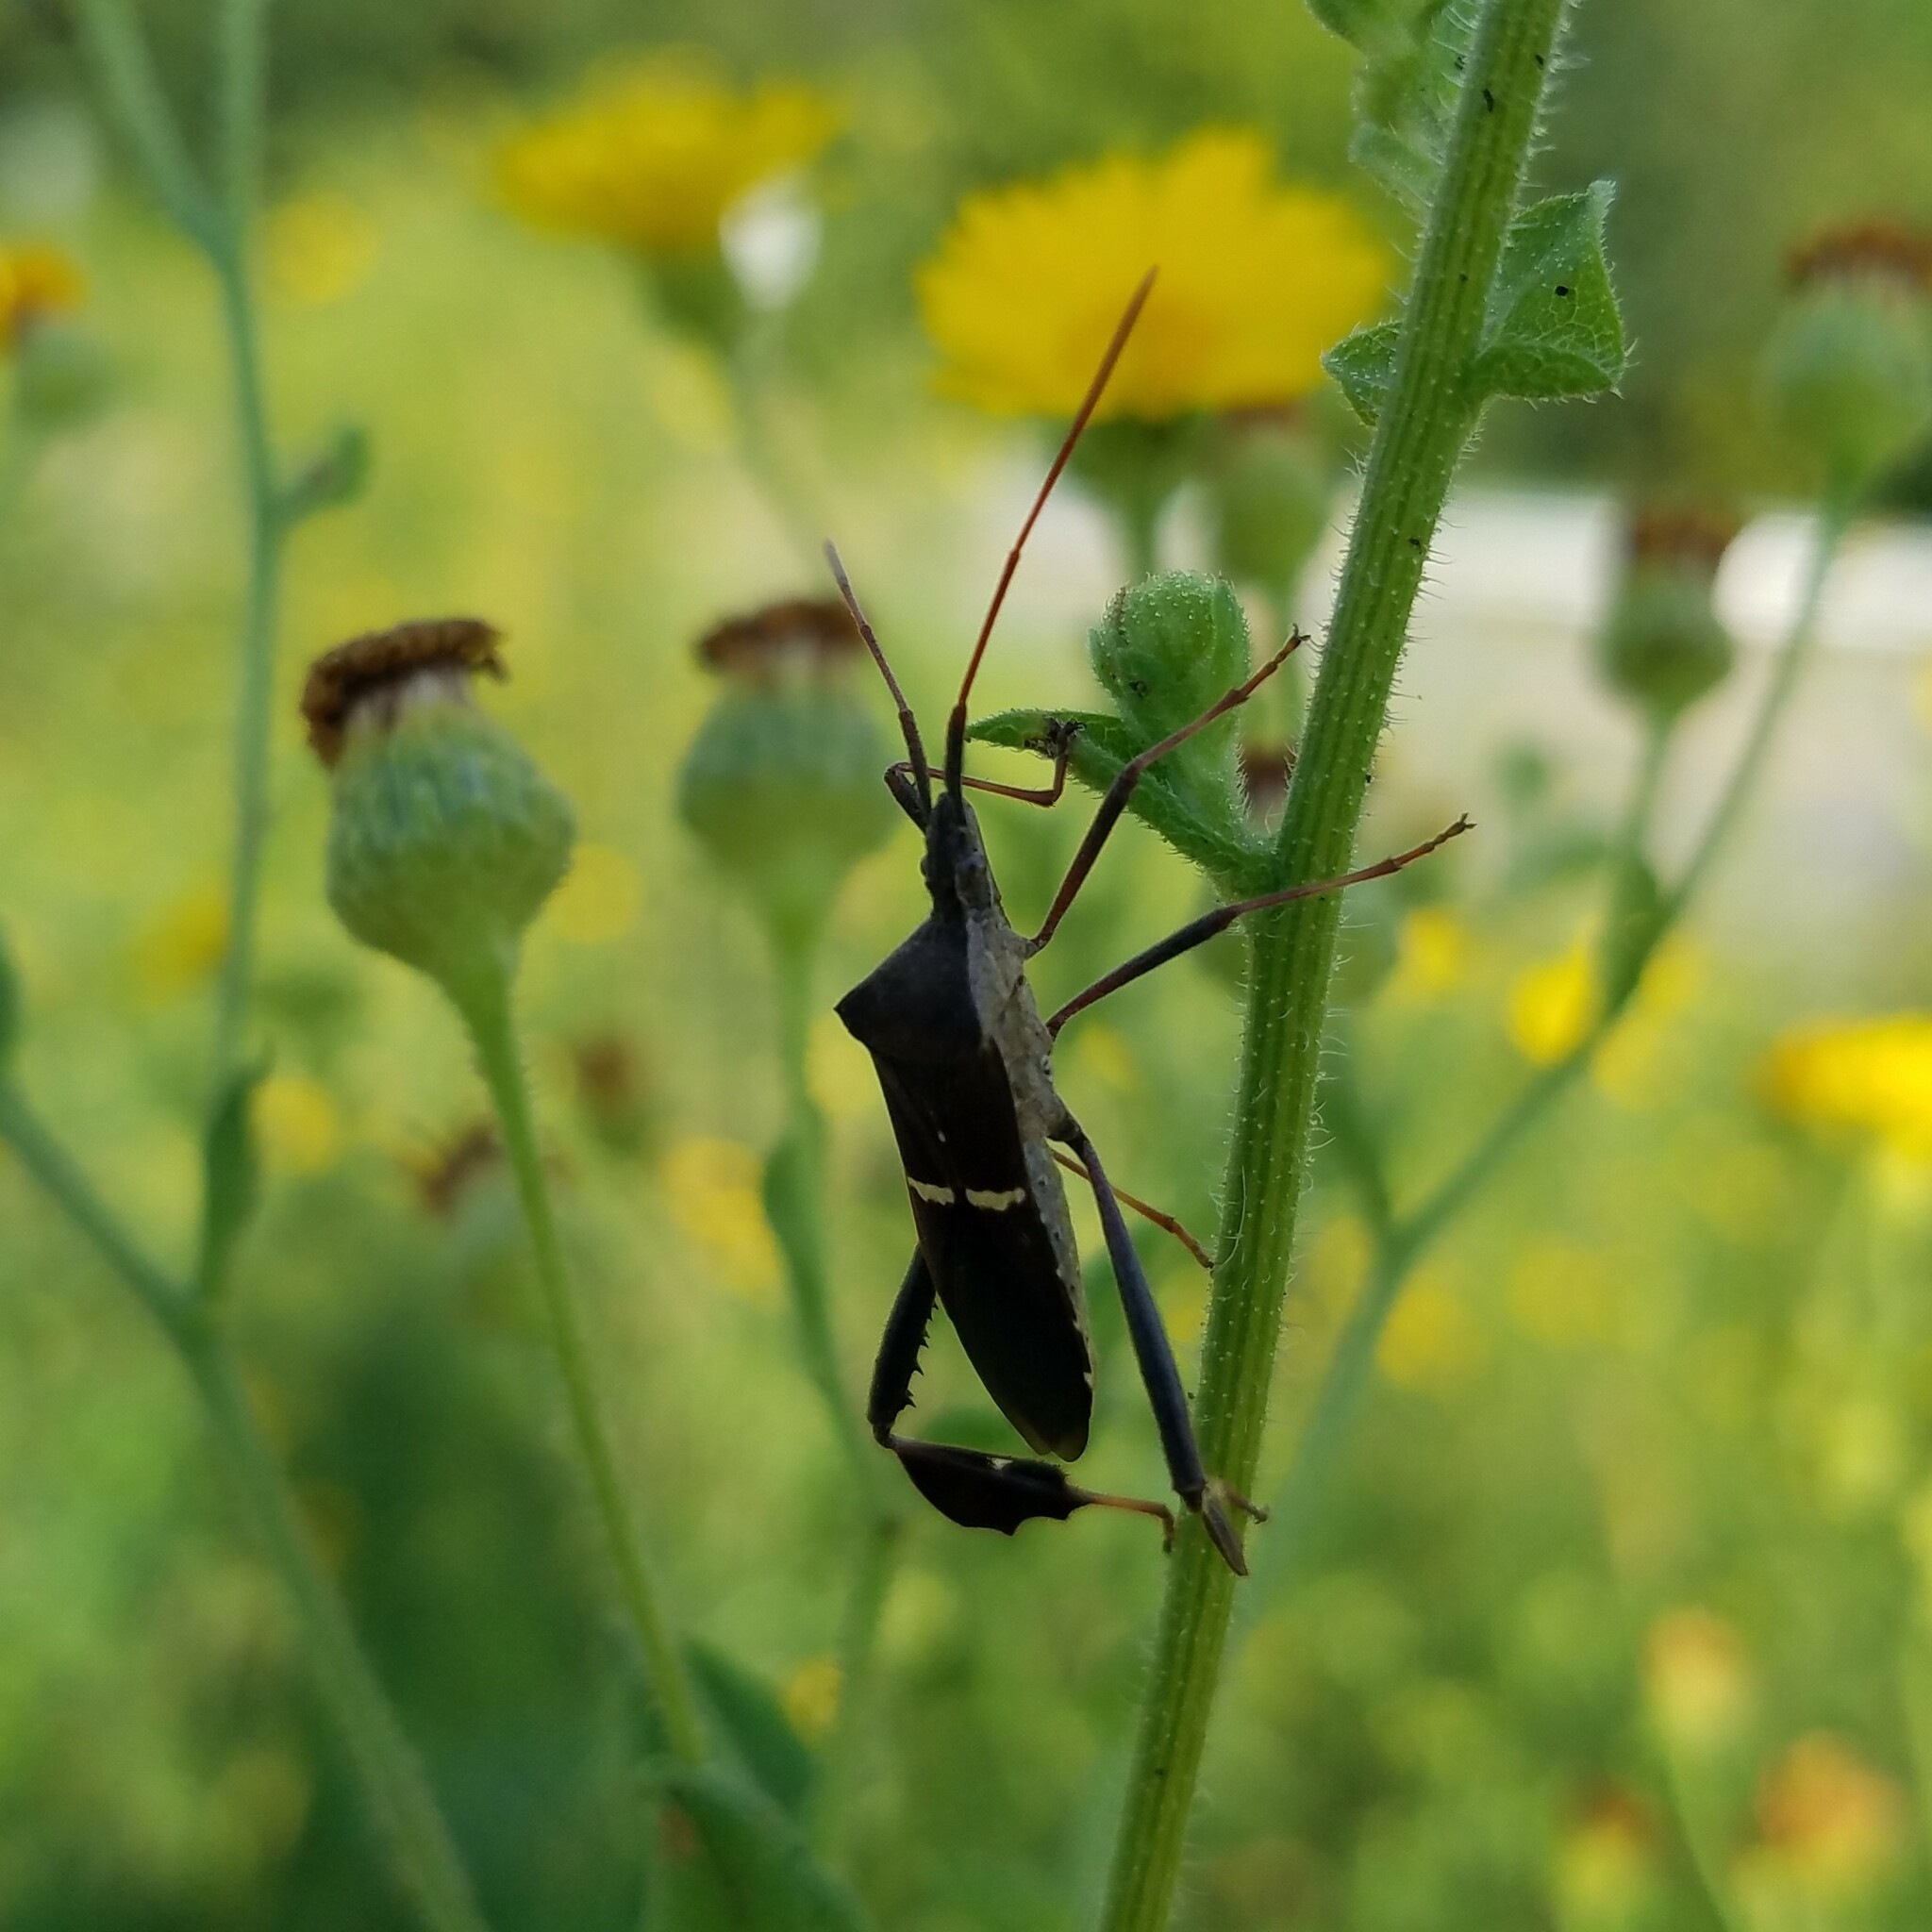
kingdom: Animalia
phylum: Arthropoda
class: Insecta
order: Hemiptera
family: Coreidae
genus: Leptoglossus
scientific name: Leptoglossus phyllopus
